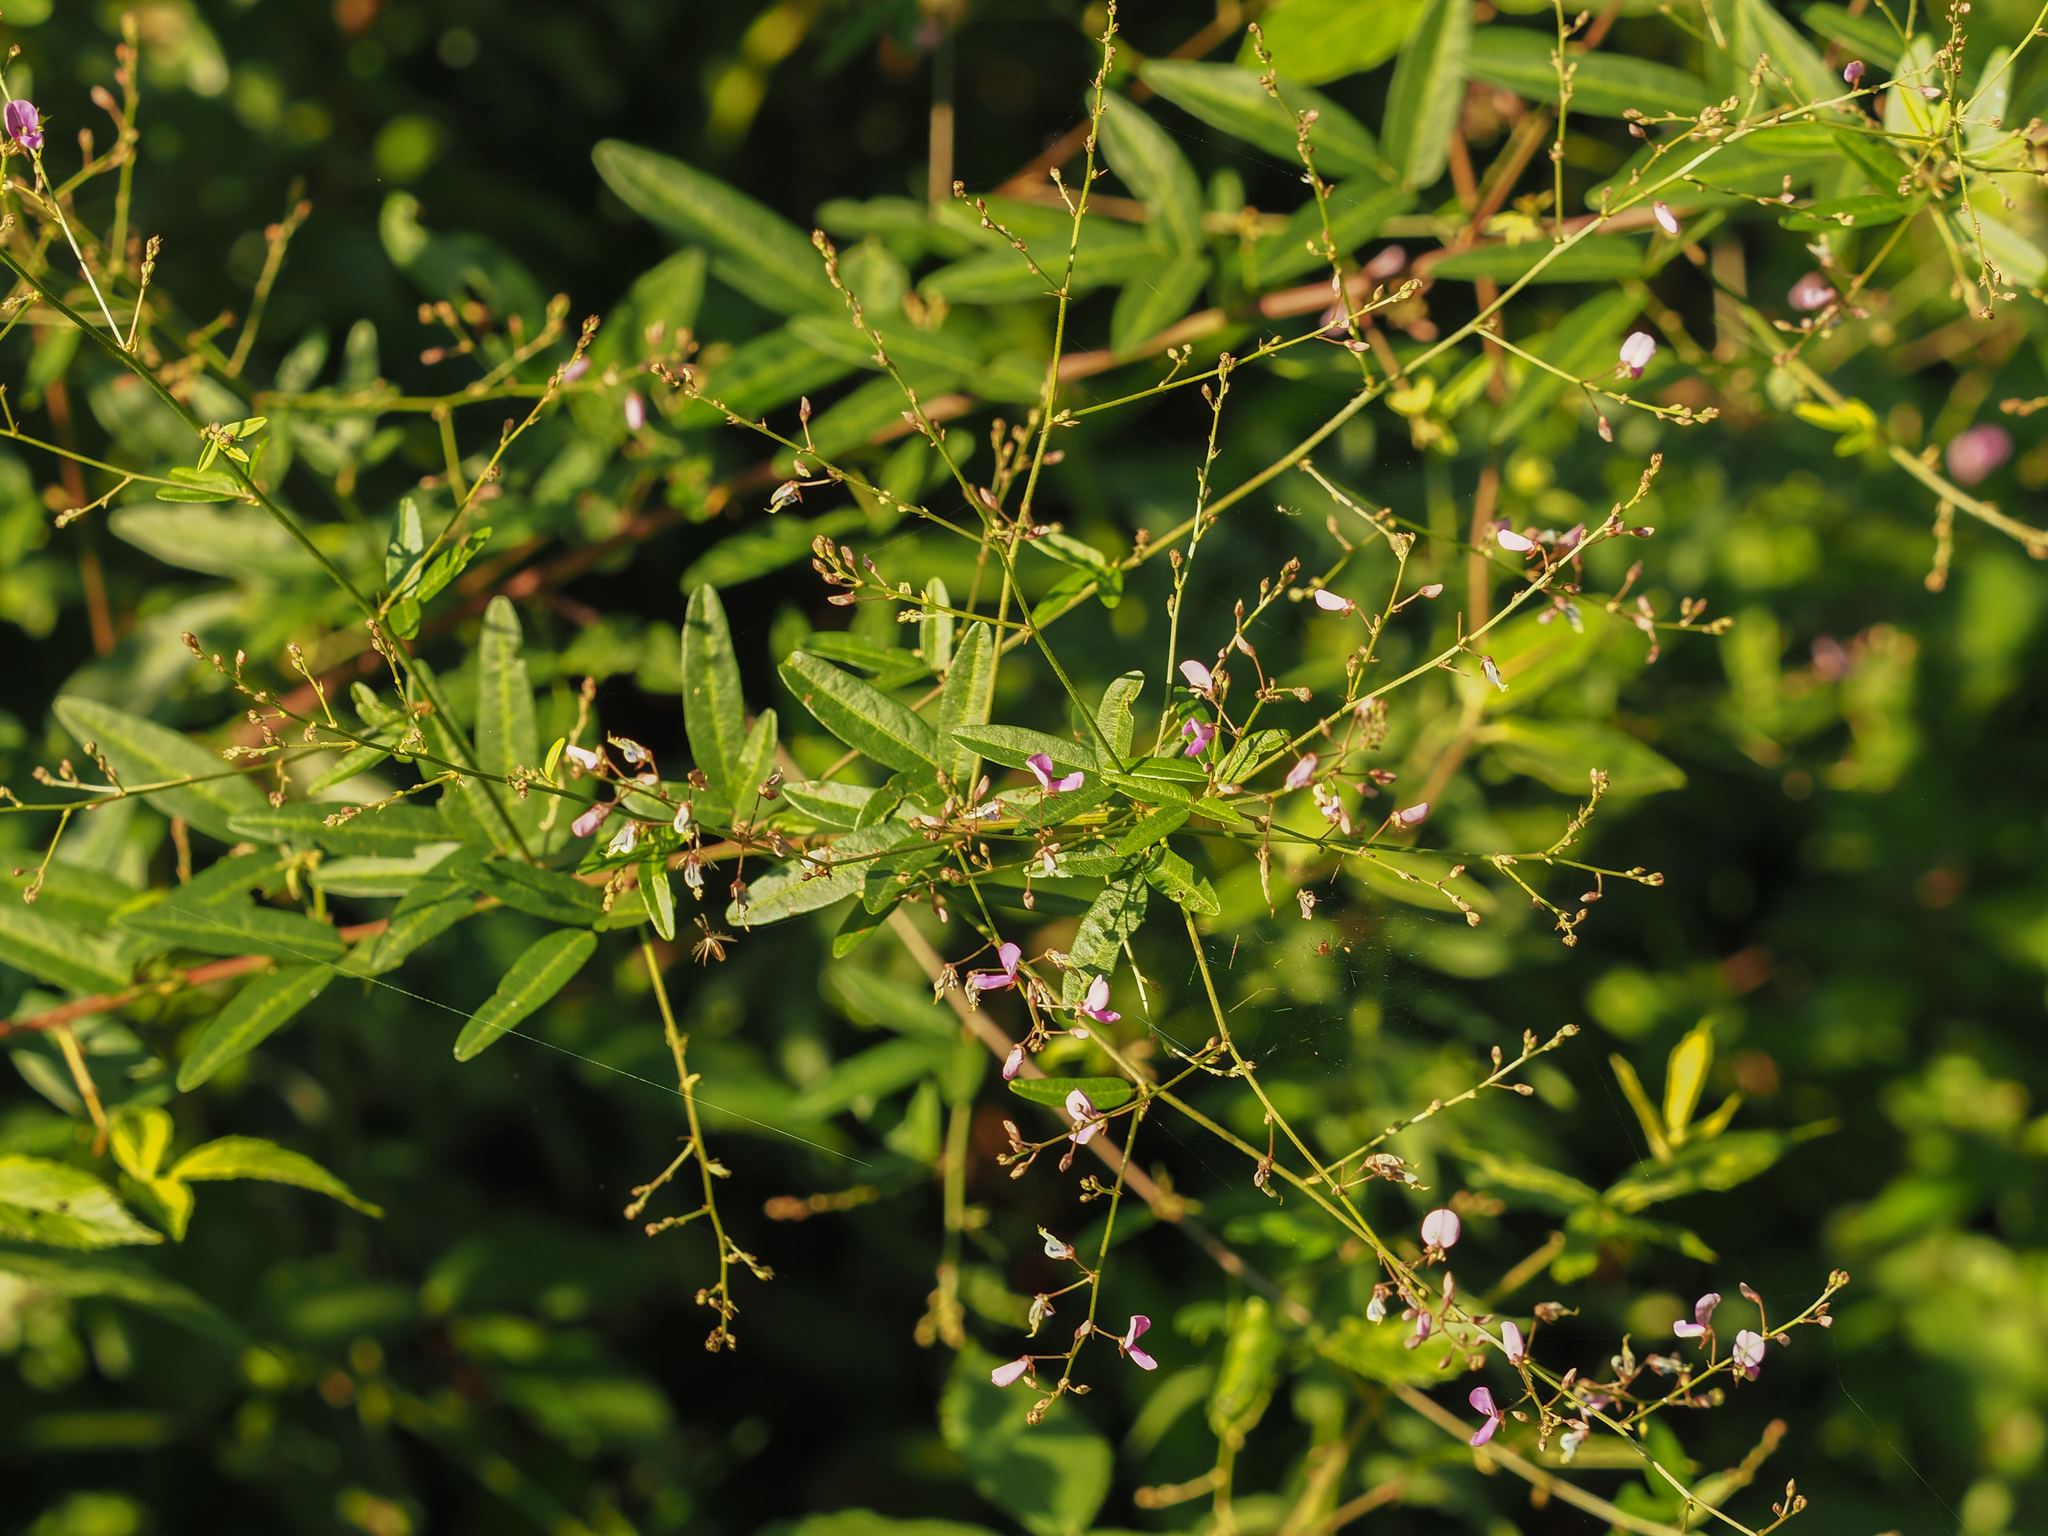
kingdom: Plantae
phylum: Tracheophyta
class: Magnoliopsida
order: Fabales
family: Fabaceae
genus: Desmodium
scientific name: Desmodium paniculatum
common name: Panicled tick-clover
